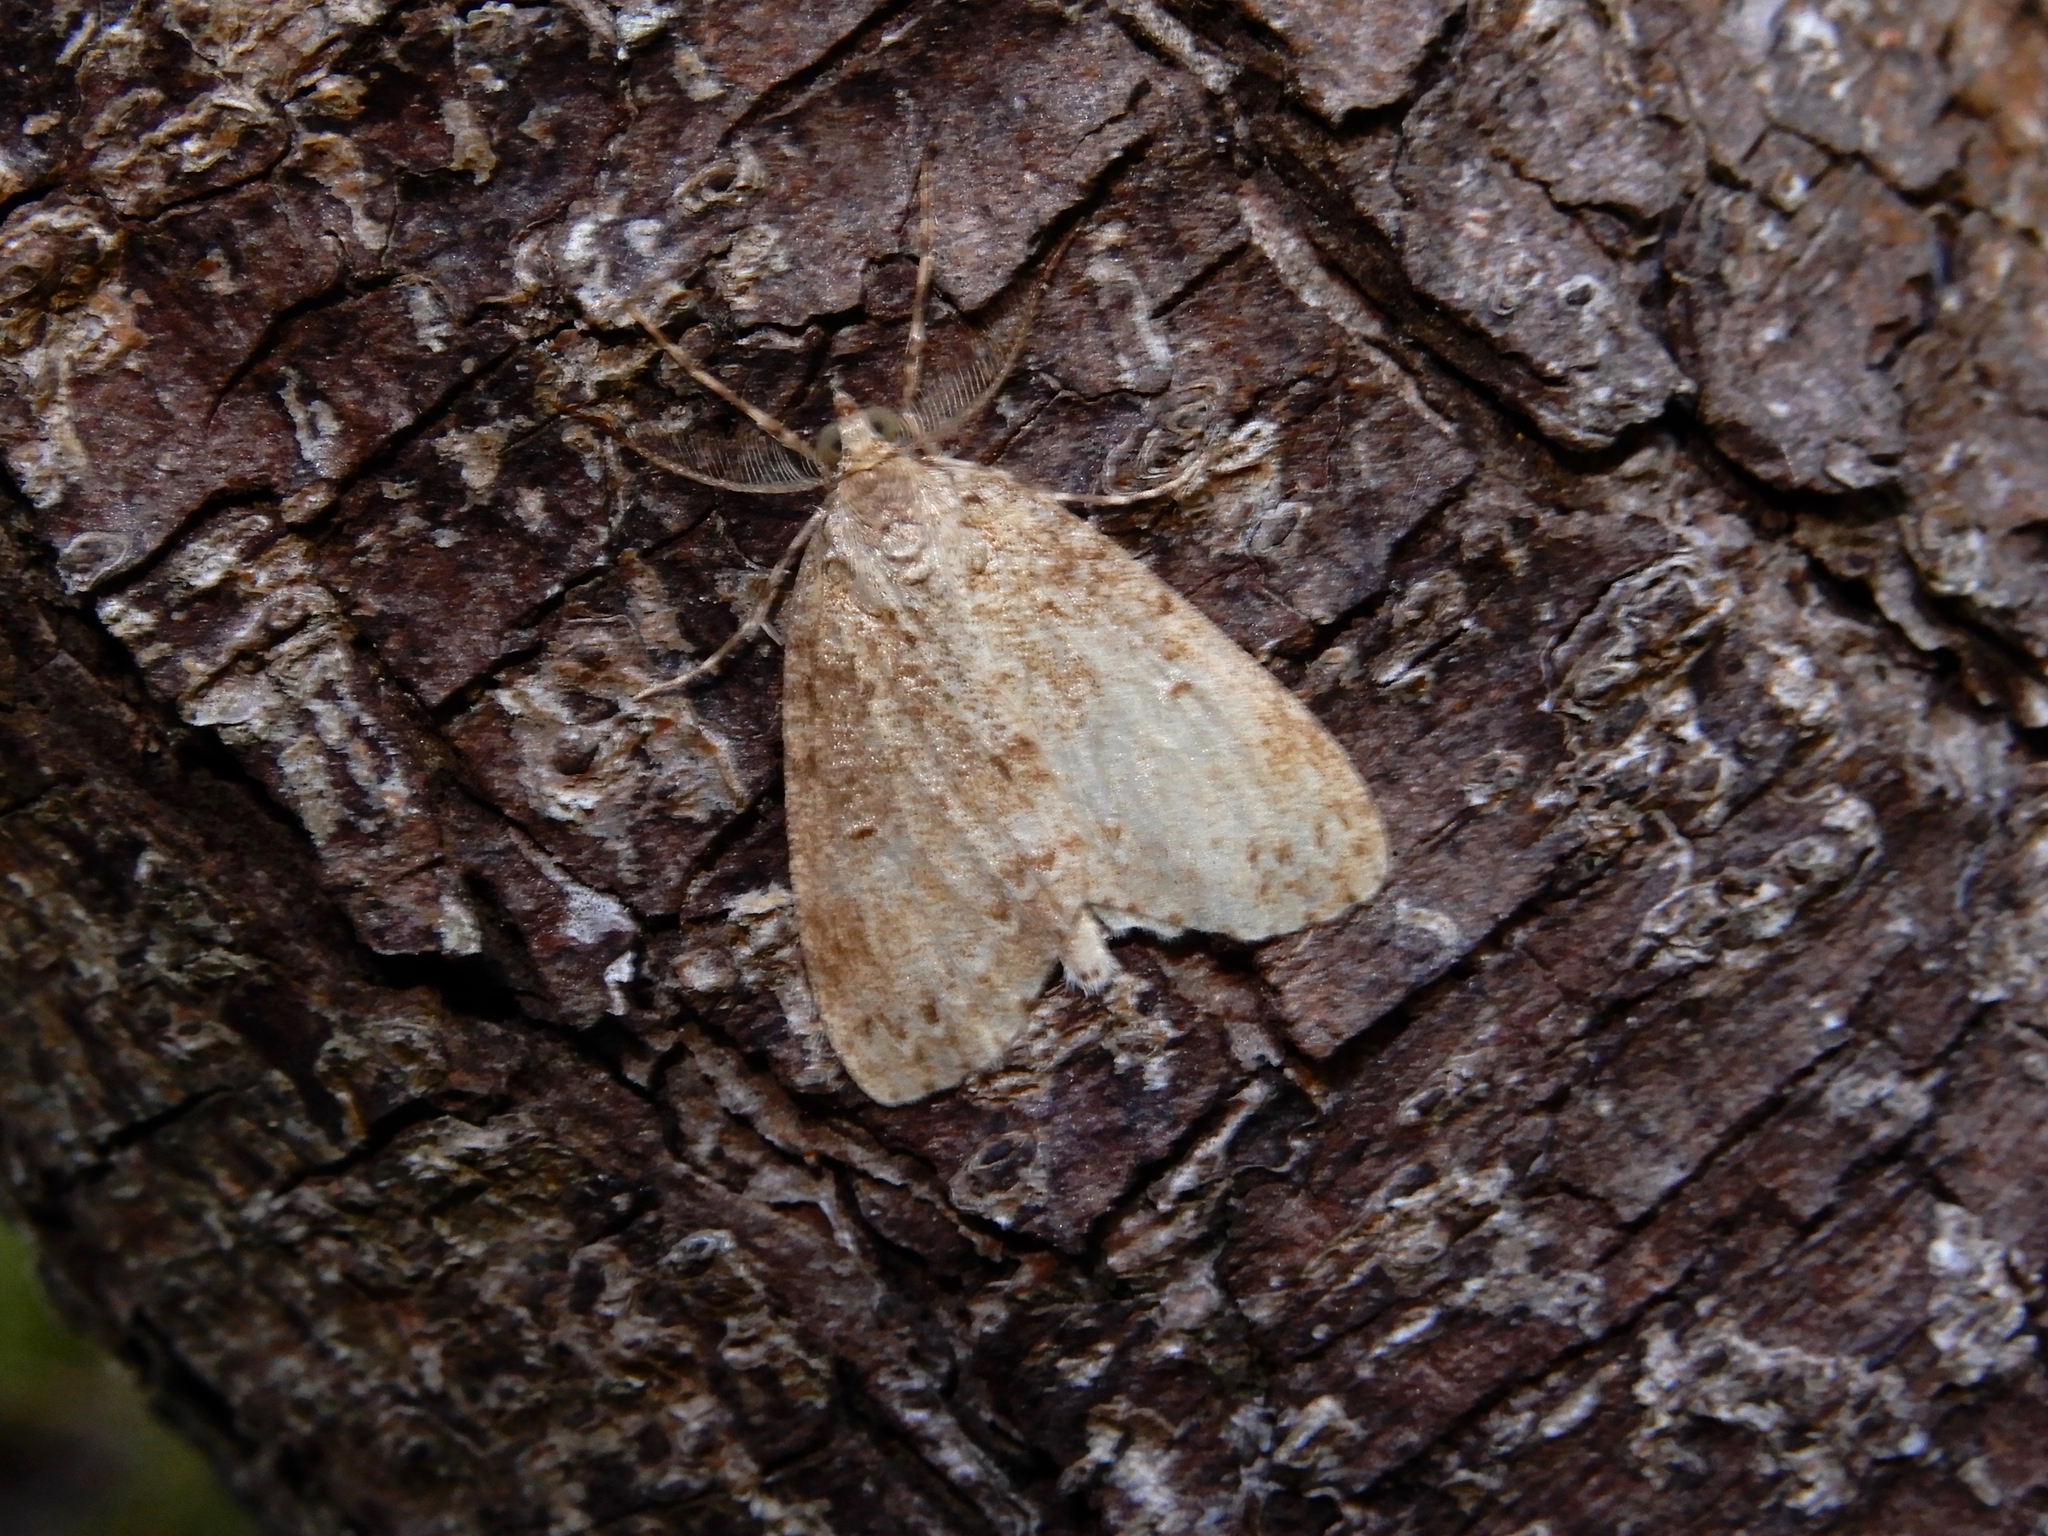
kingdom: Animalia
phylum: Arthropoda
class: Insecta
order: Lepidoptera
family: Geometridae
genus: Pseudocoremia
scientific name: Pseudocoremia fenerata
